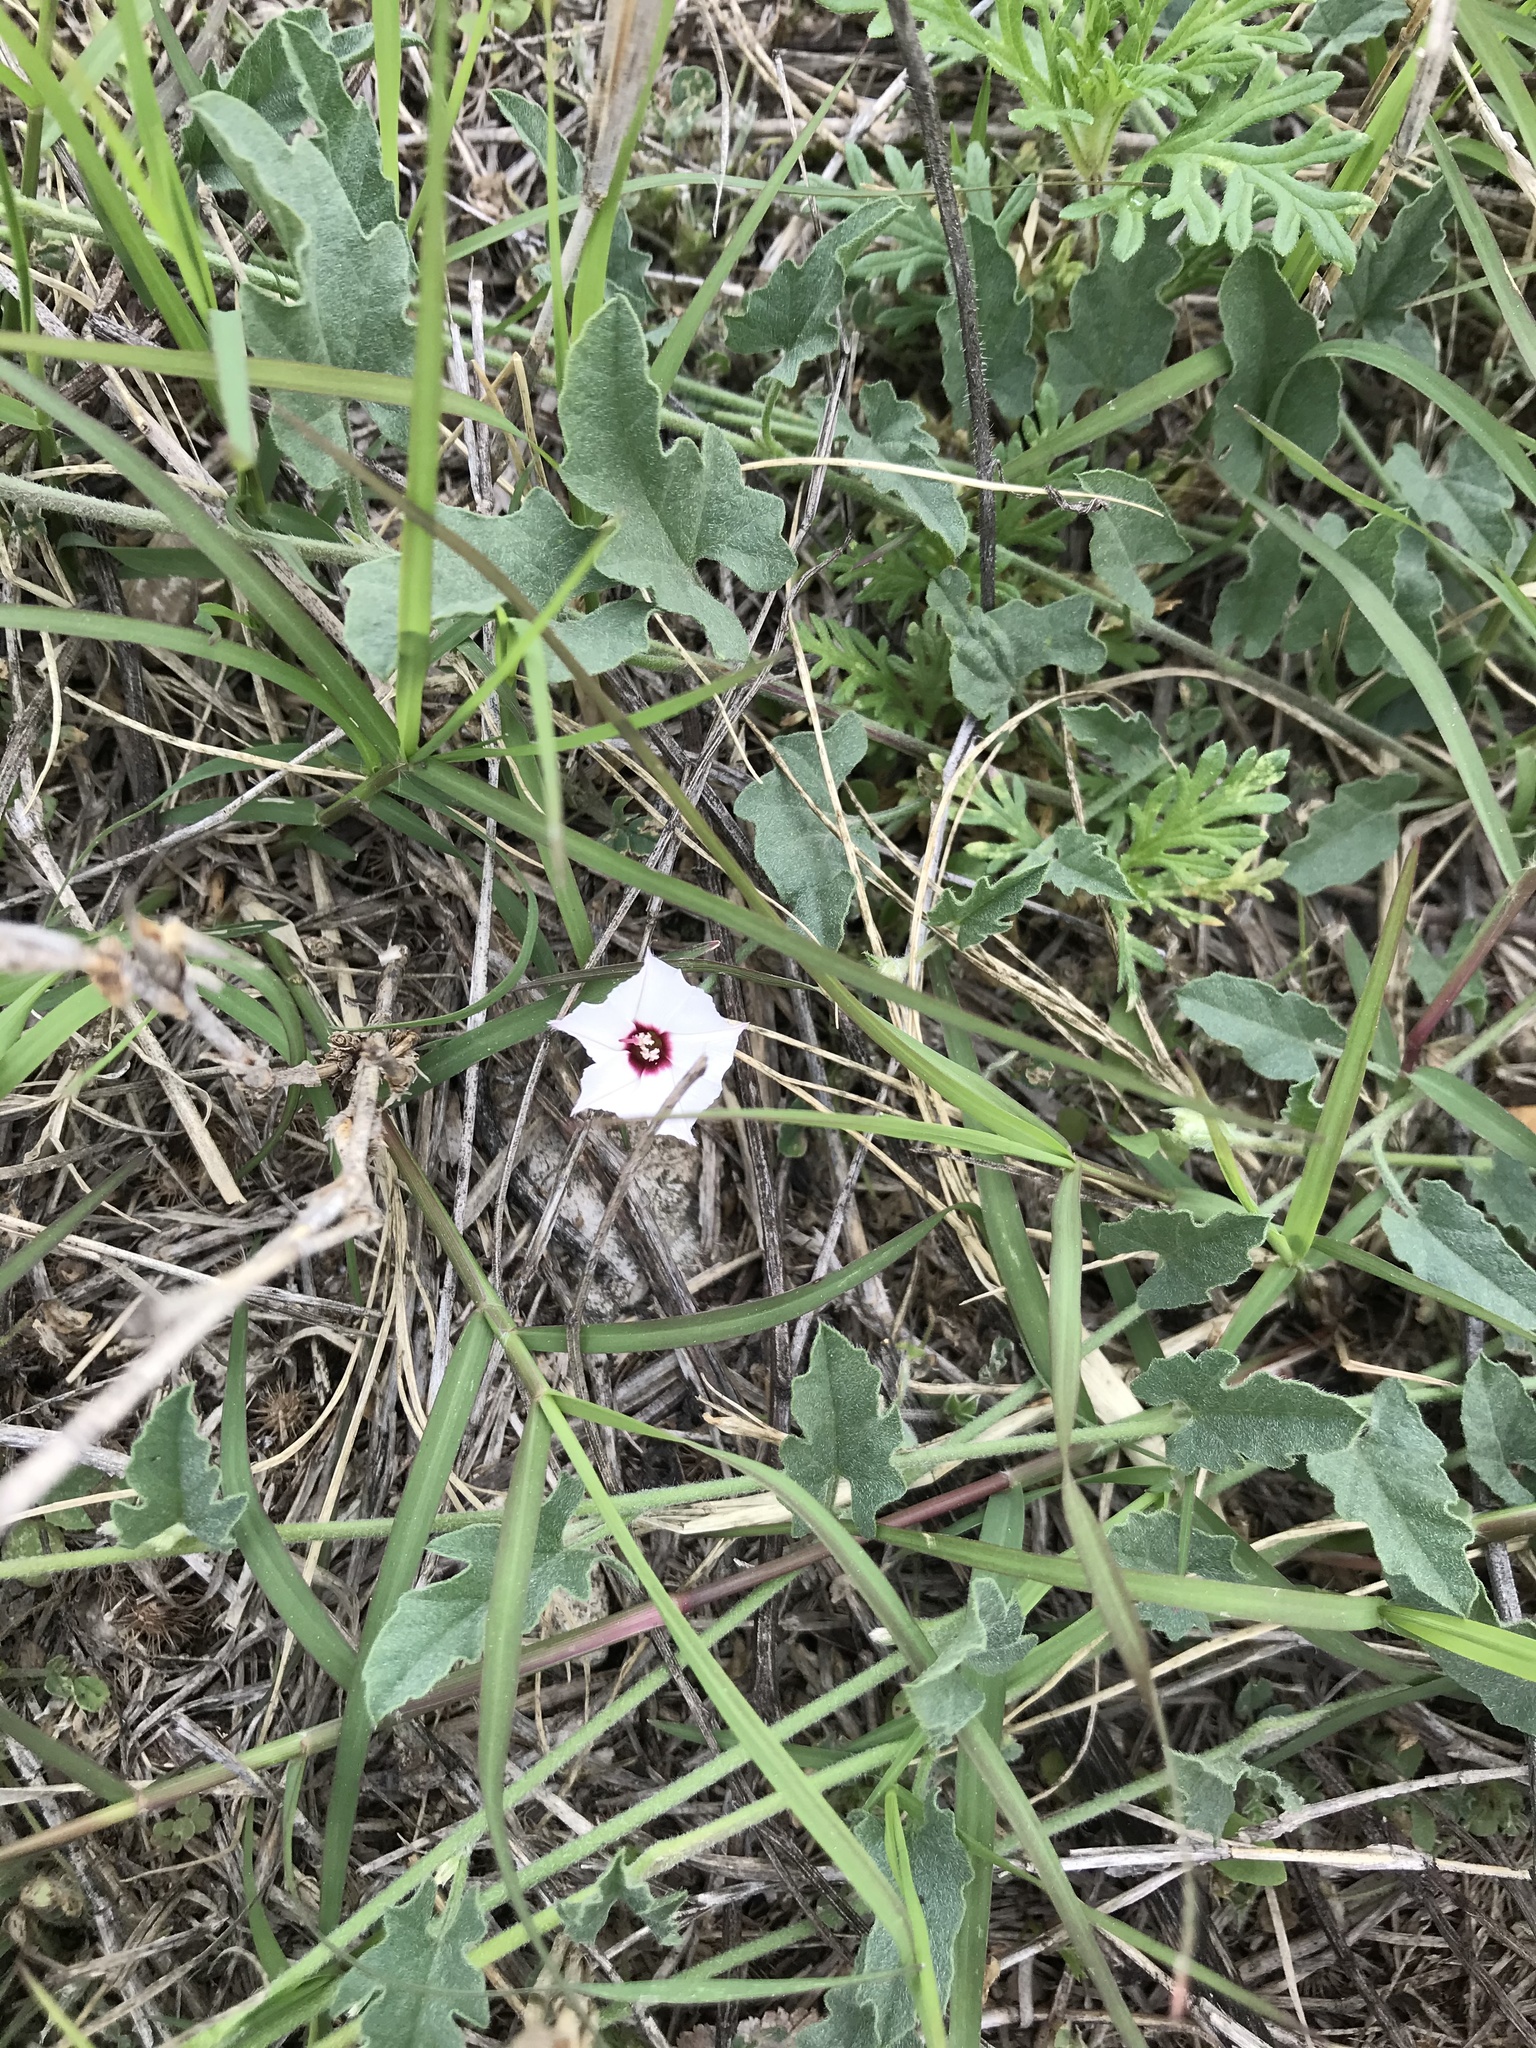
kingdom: Plantae
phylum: Tracheophyta
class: Magnoliopsida
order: Solanales
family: Convolvulaceae
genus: Convolvulus
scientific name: Convolvulus equitans
